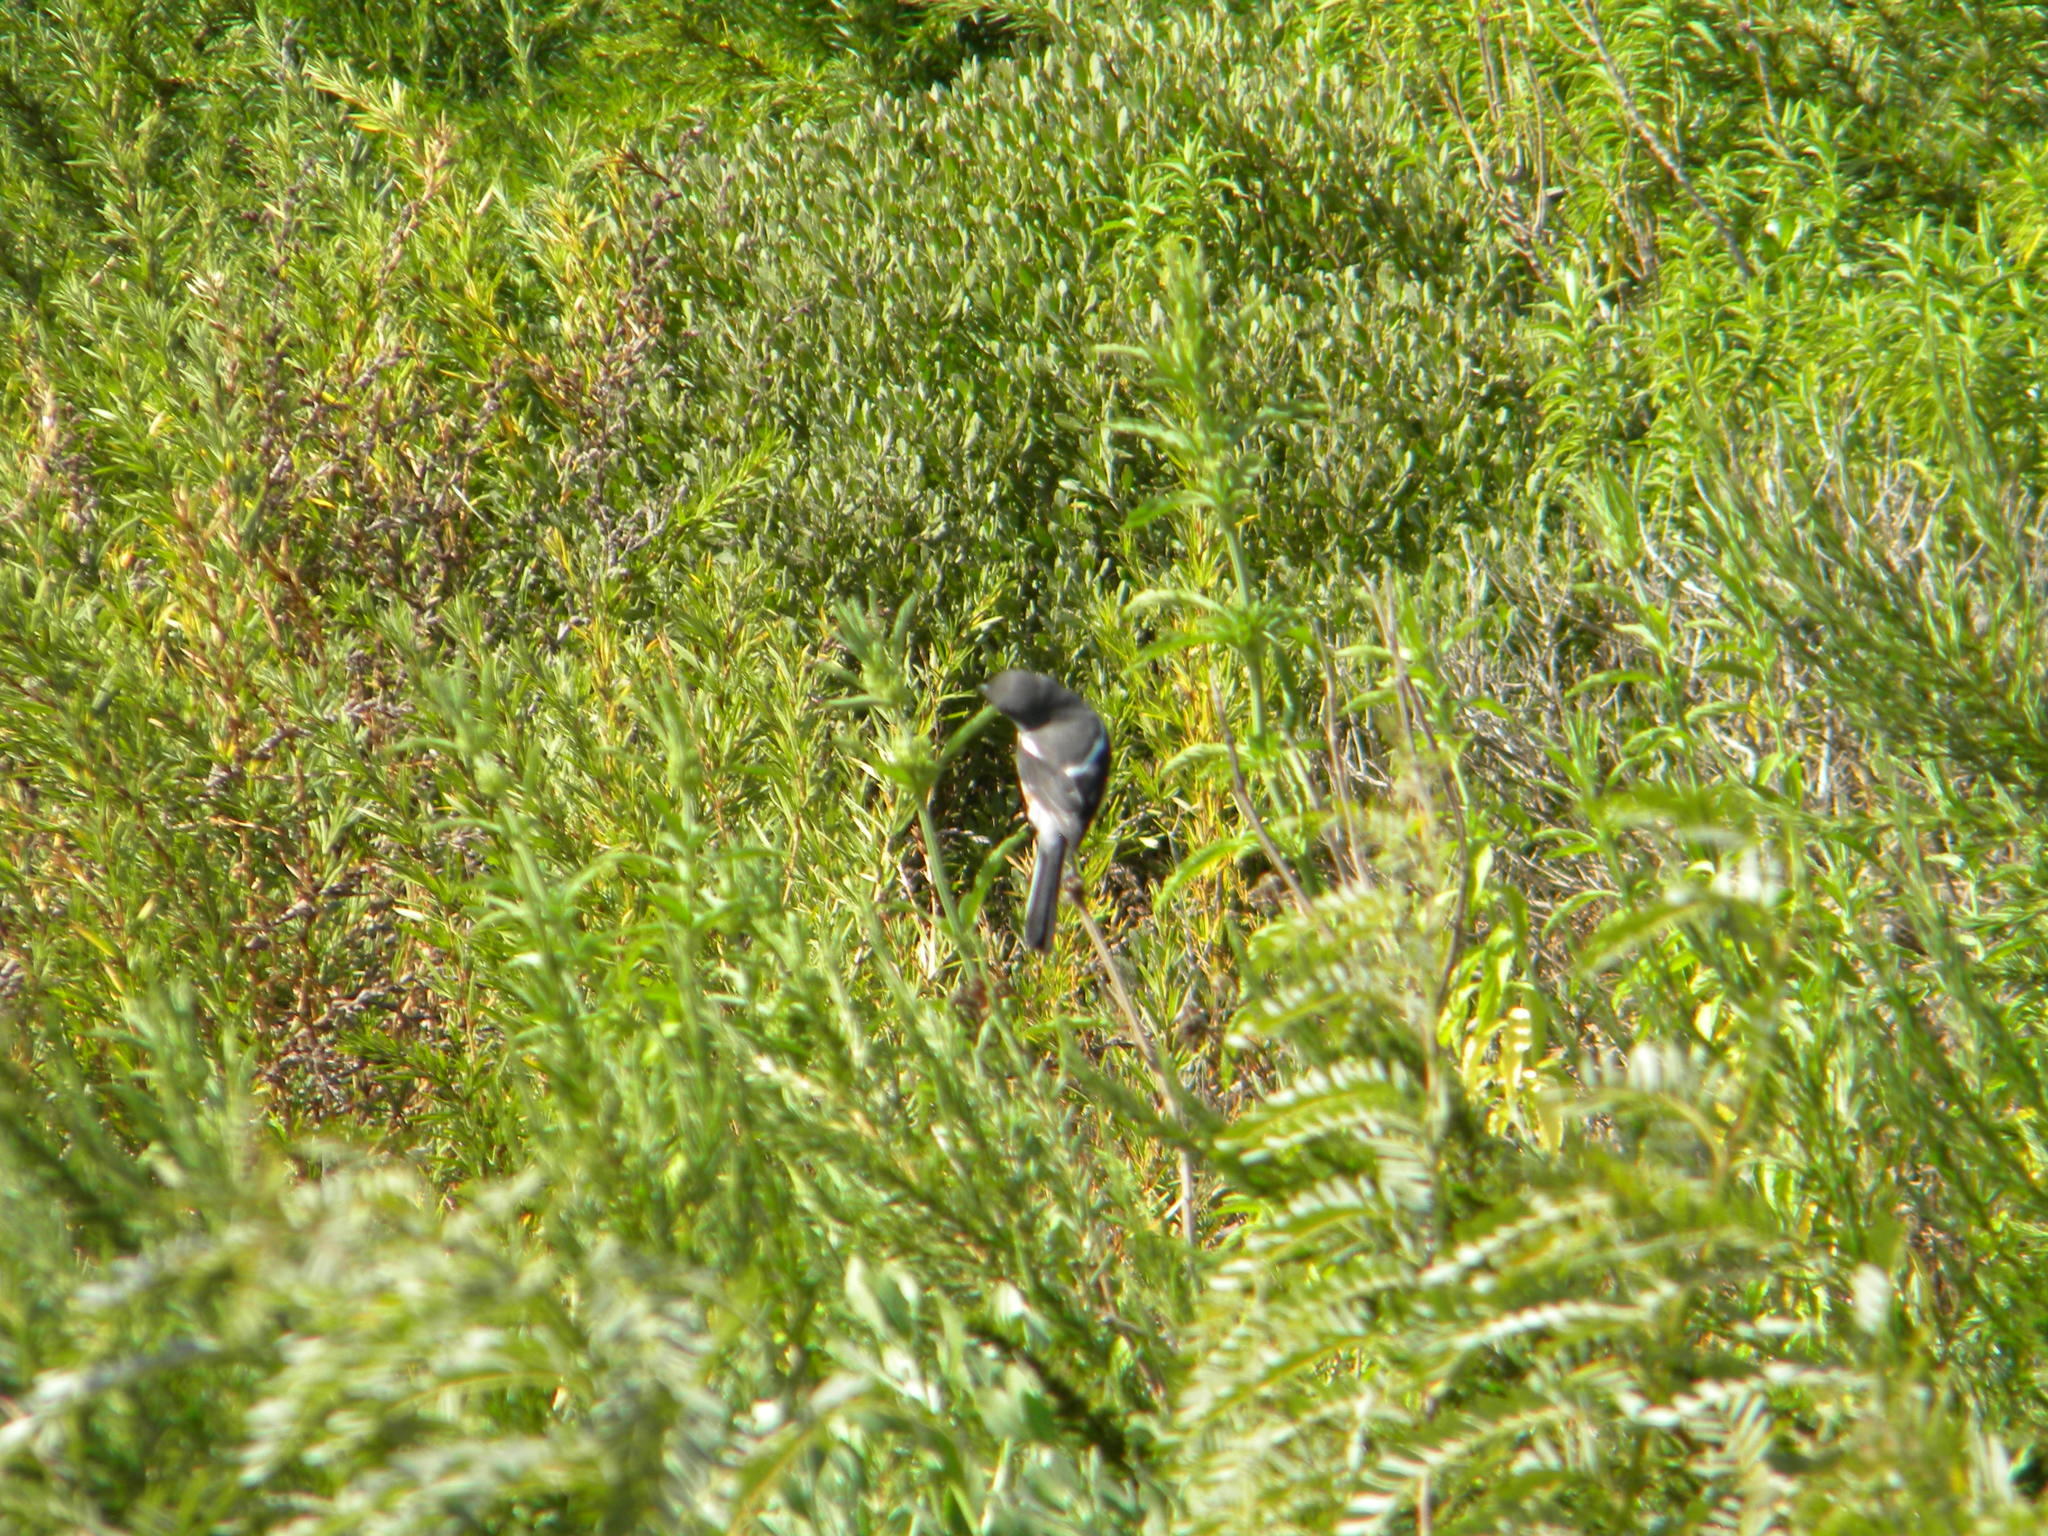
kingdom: Animalia
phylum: Chordata
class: Aves
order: Passeriformes
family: Laniidae
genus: Lanius
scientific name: Lanius collaris
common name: Southern fiscal
